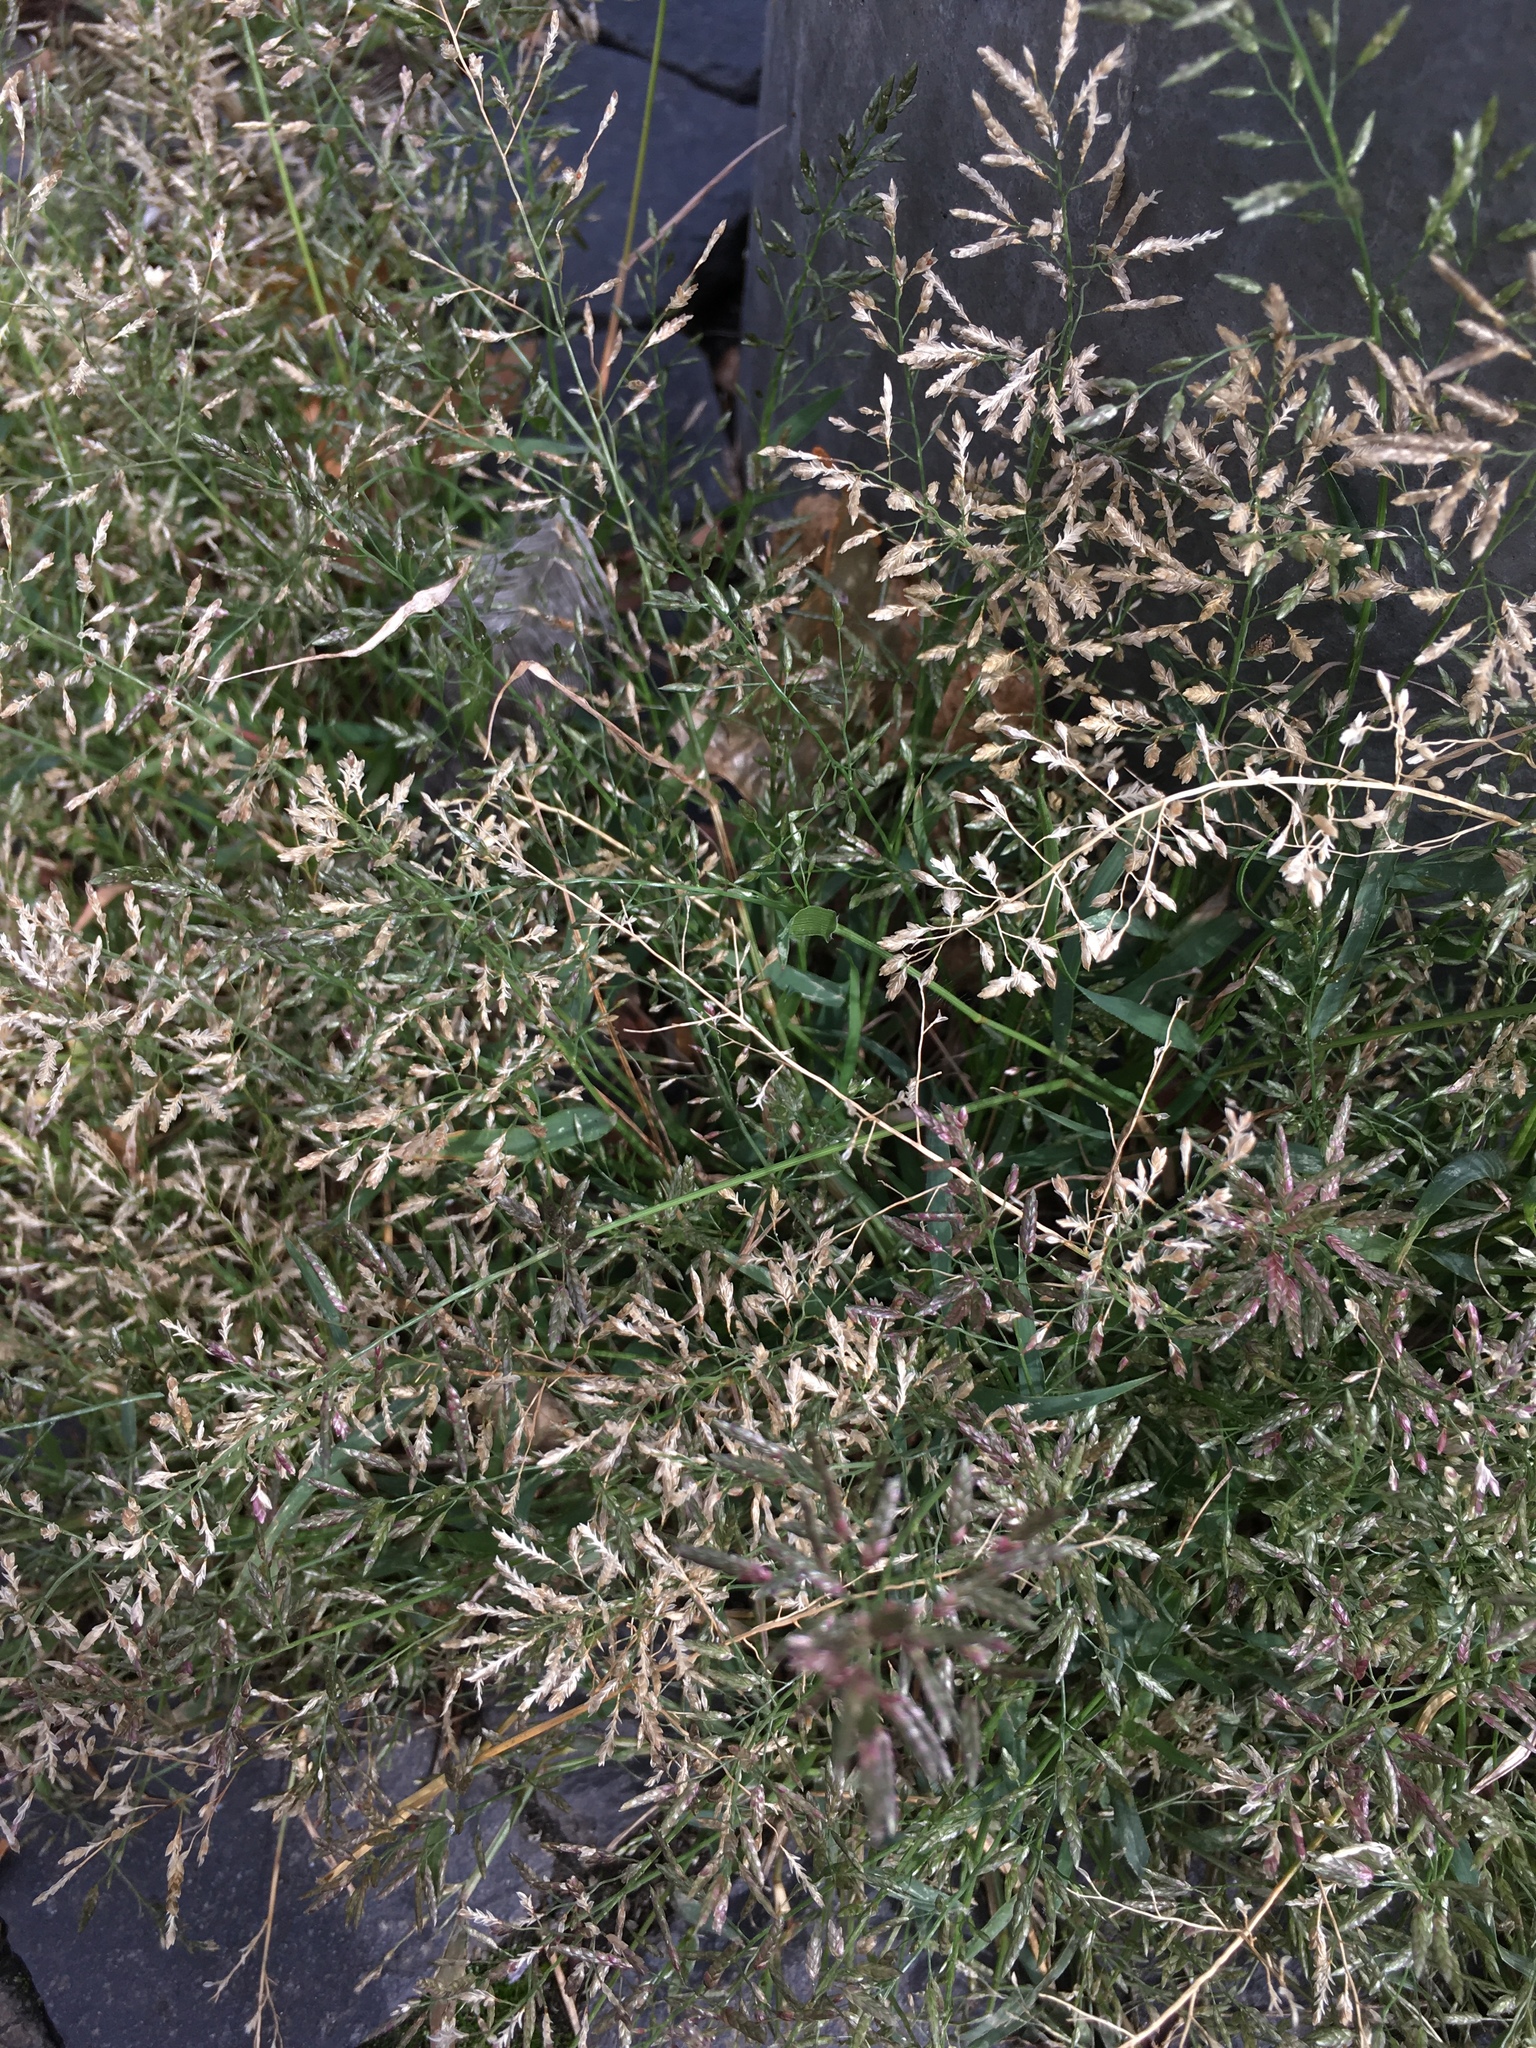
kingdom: Plantae
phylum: Tracheophyta
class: Liliopsida
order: Poales
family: Poaceae
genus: Eragrostis
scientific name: Eragrostis minor
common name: Small love-grass
